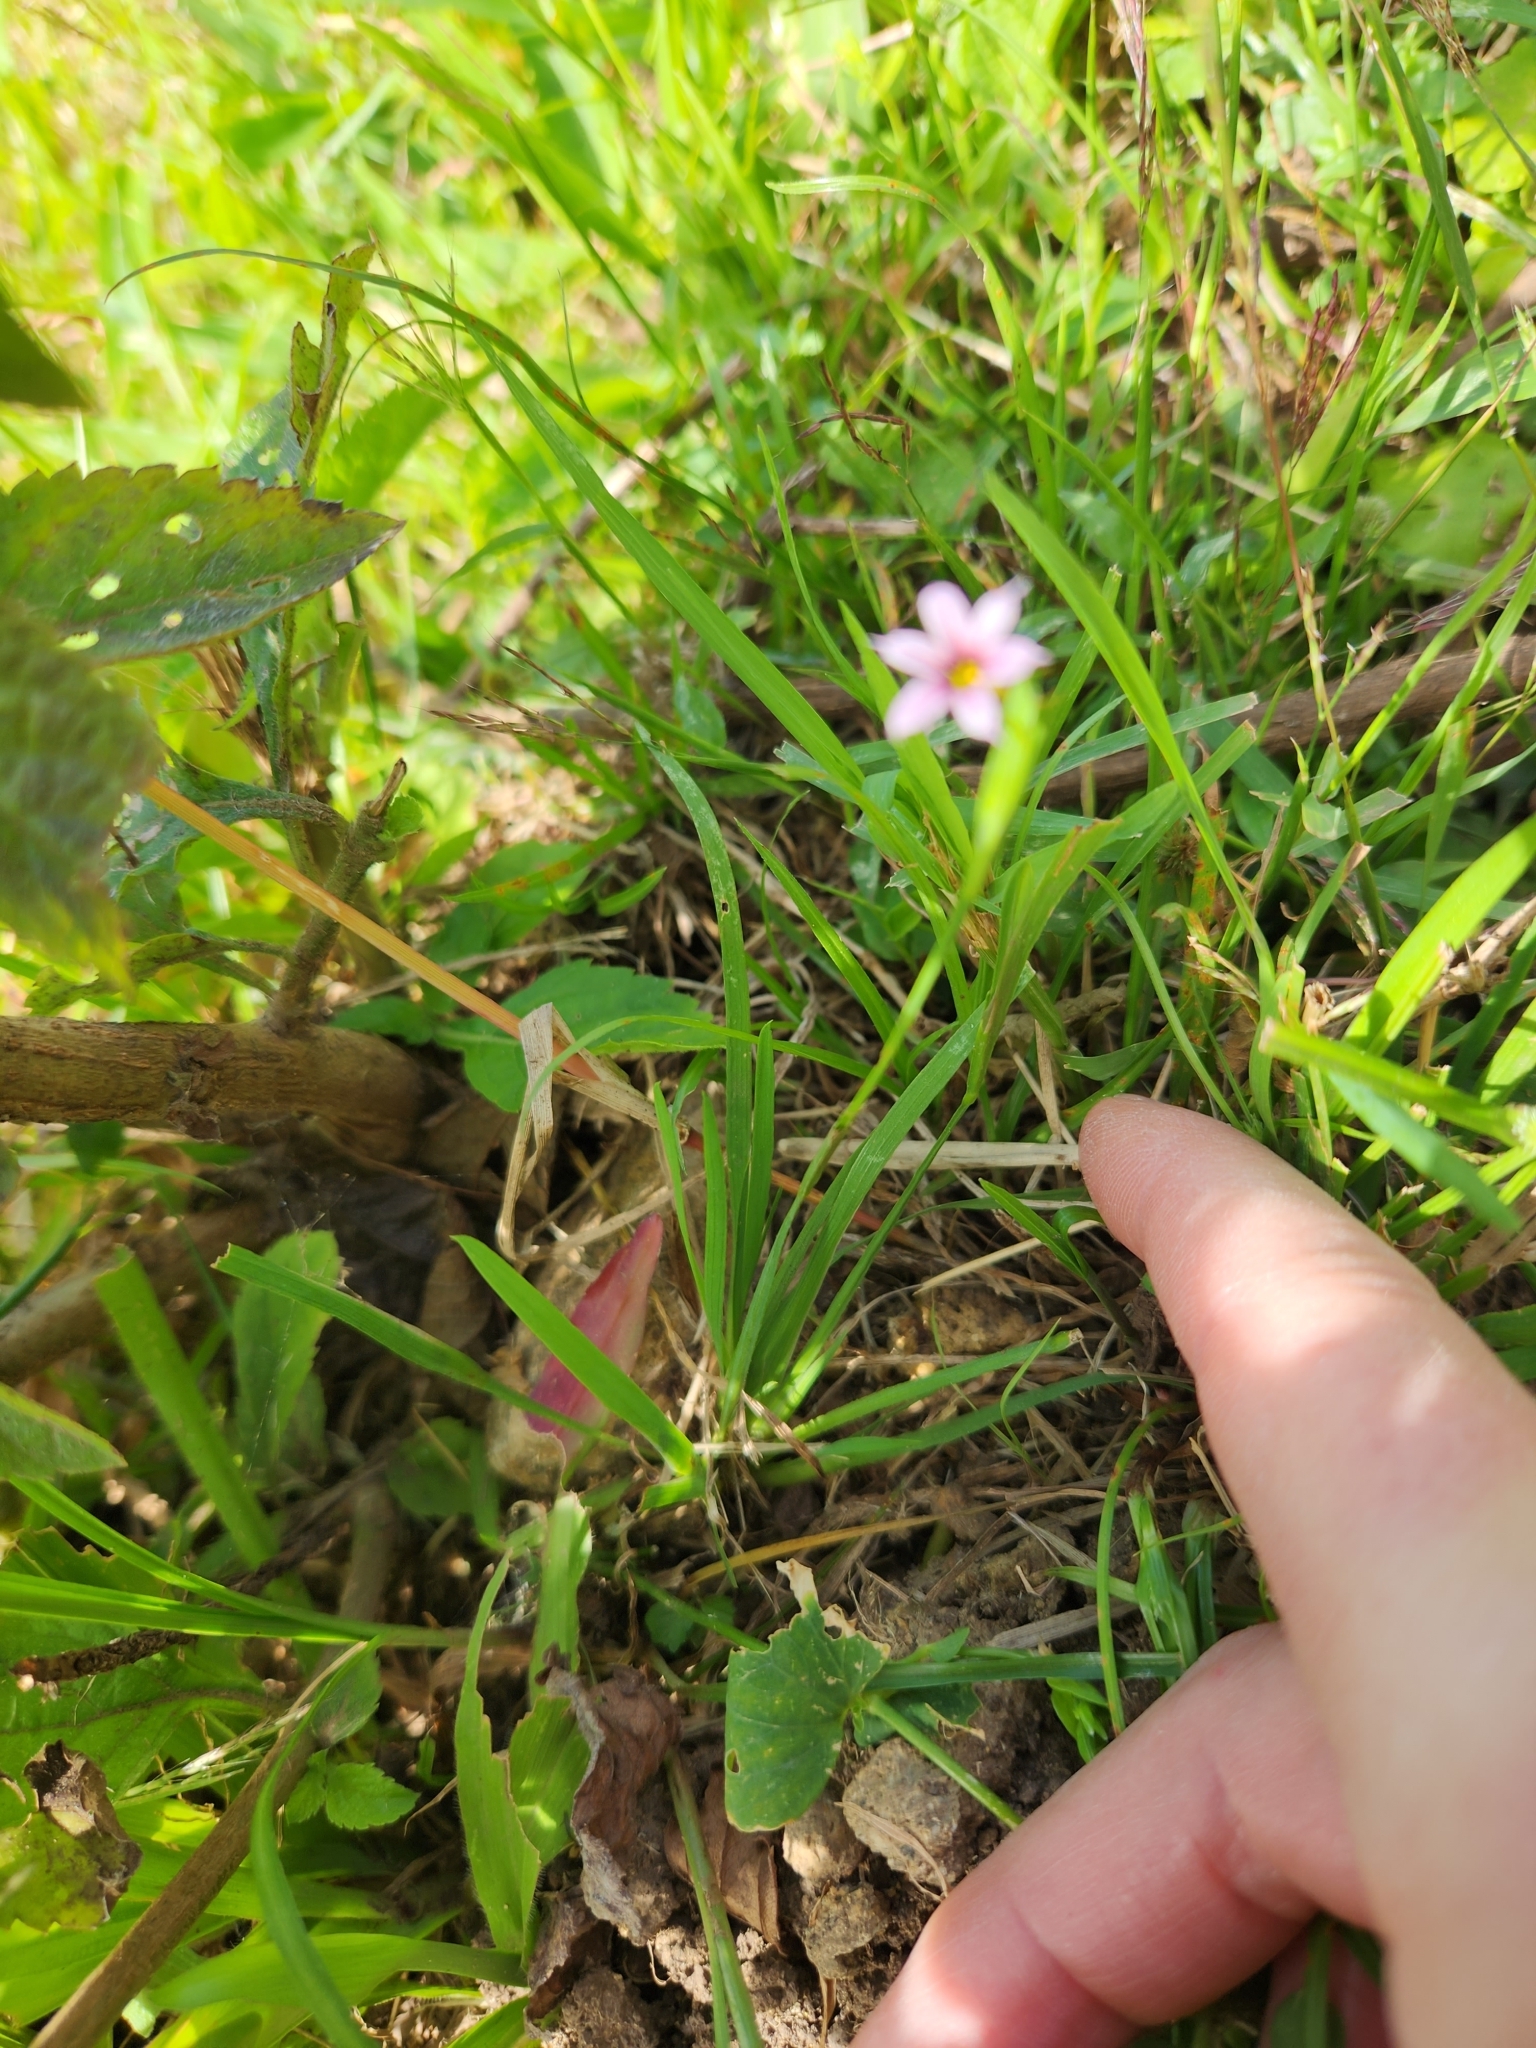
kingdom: Plantae
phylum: Tracheophyta
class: Liliopsida
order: Asparagales
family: Iridaceae
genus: Sisyrinchium
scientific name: Sisyrinchium micranthum
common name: Bermuda pigroot
